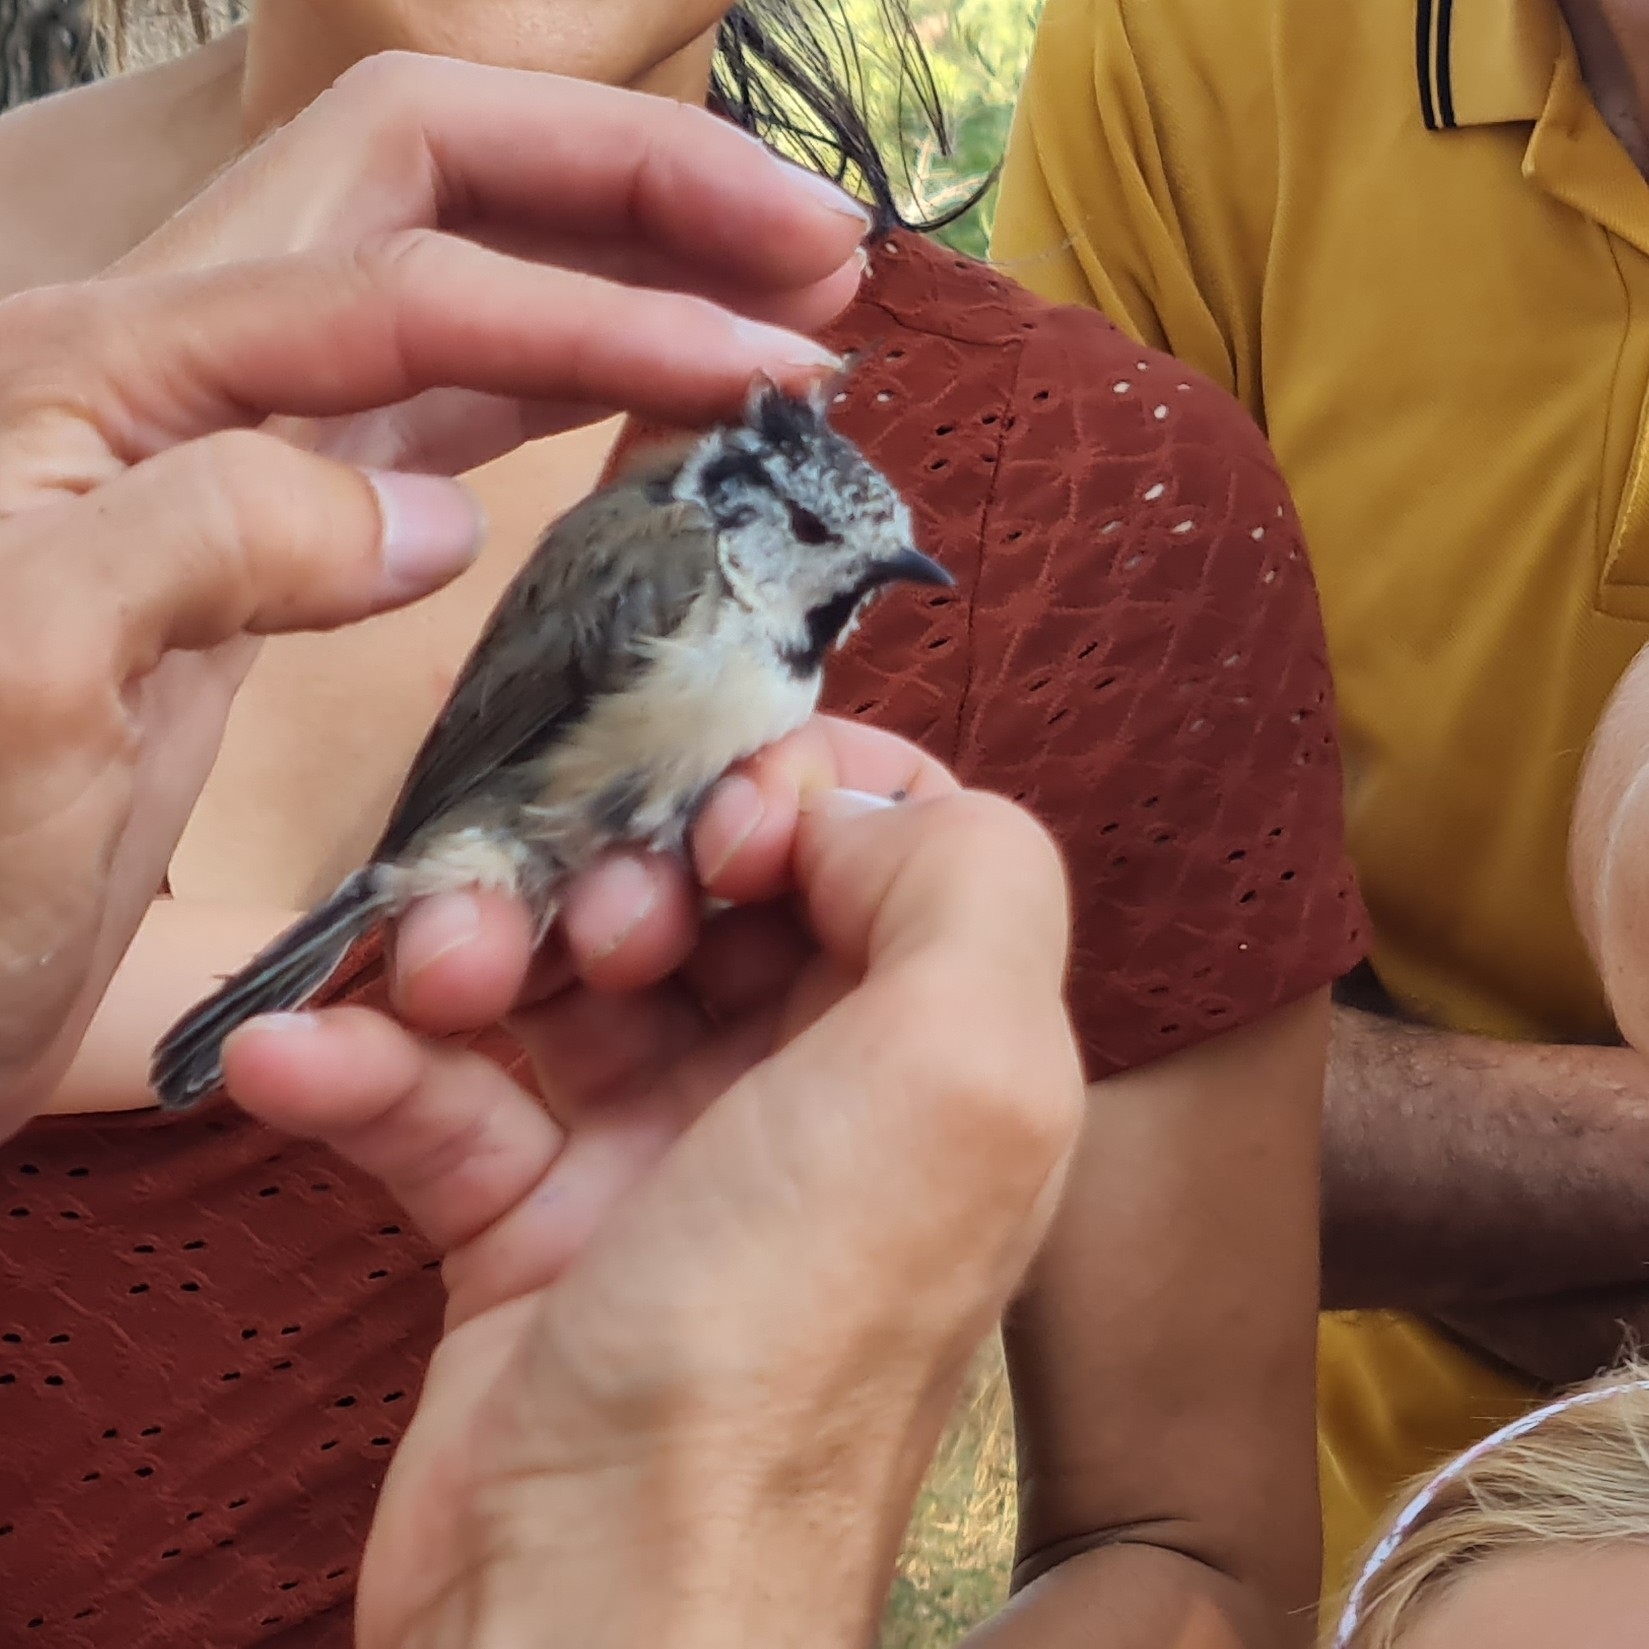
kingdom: Animalia
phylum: Chordata
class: Aves
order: Passeriformes
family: Paridae
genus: Lophophanes
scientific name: Lophophanes cristatus
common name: European crested tit
